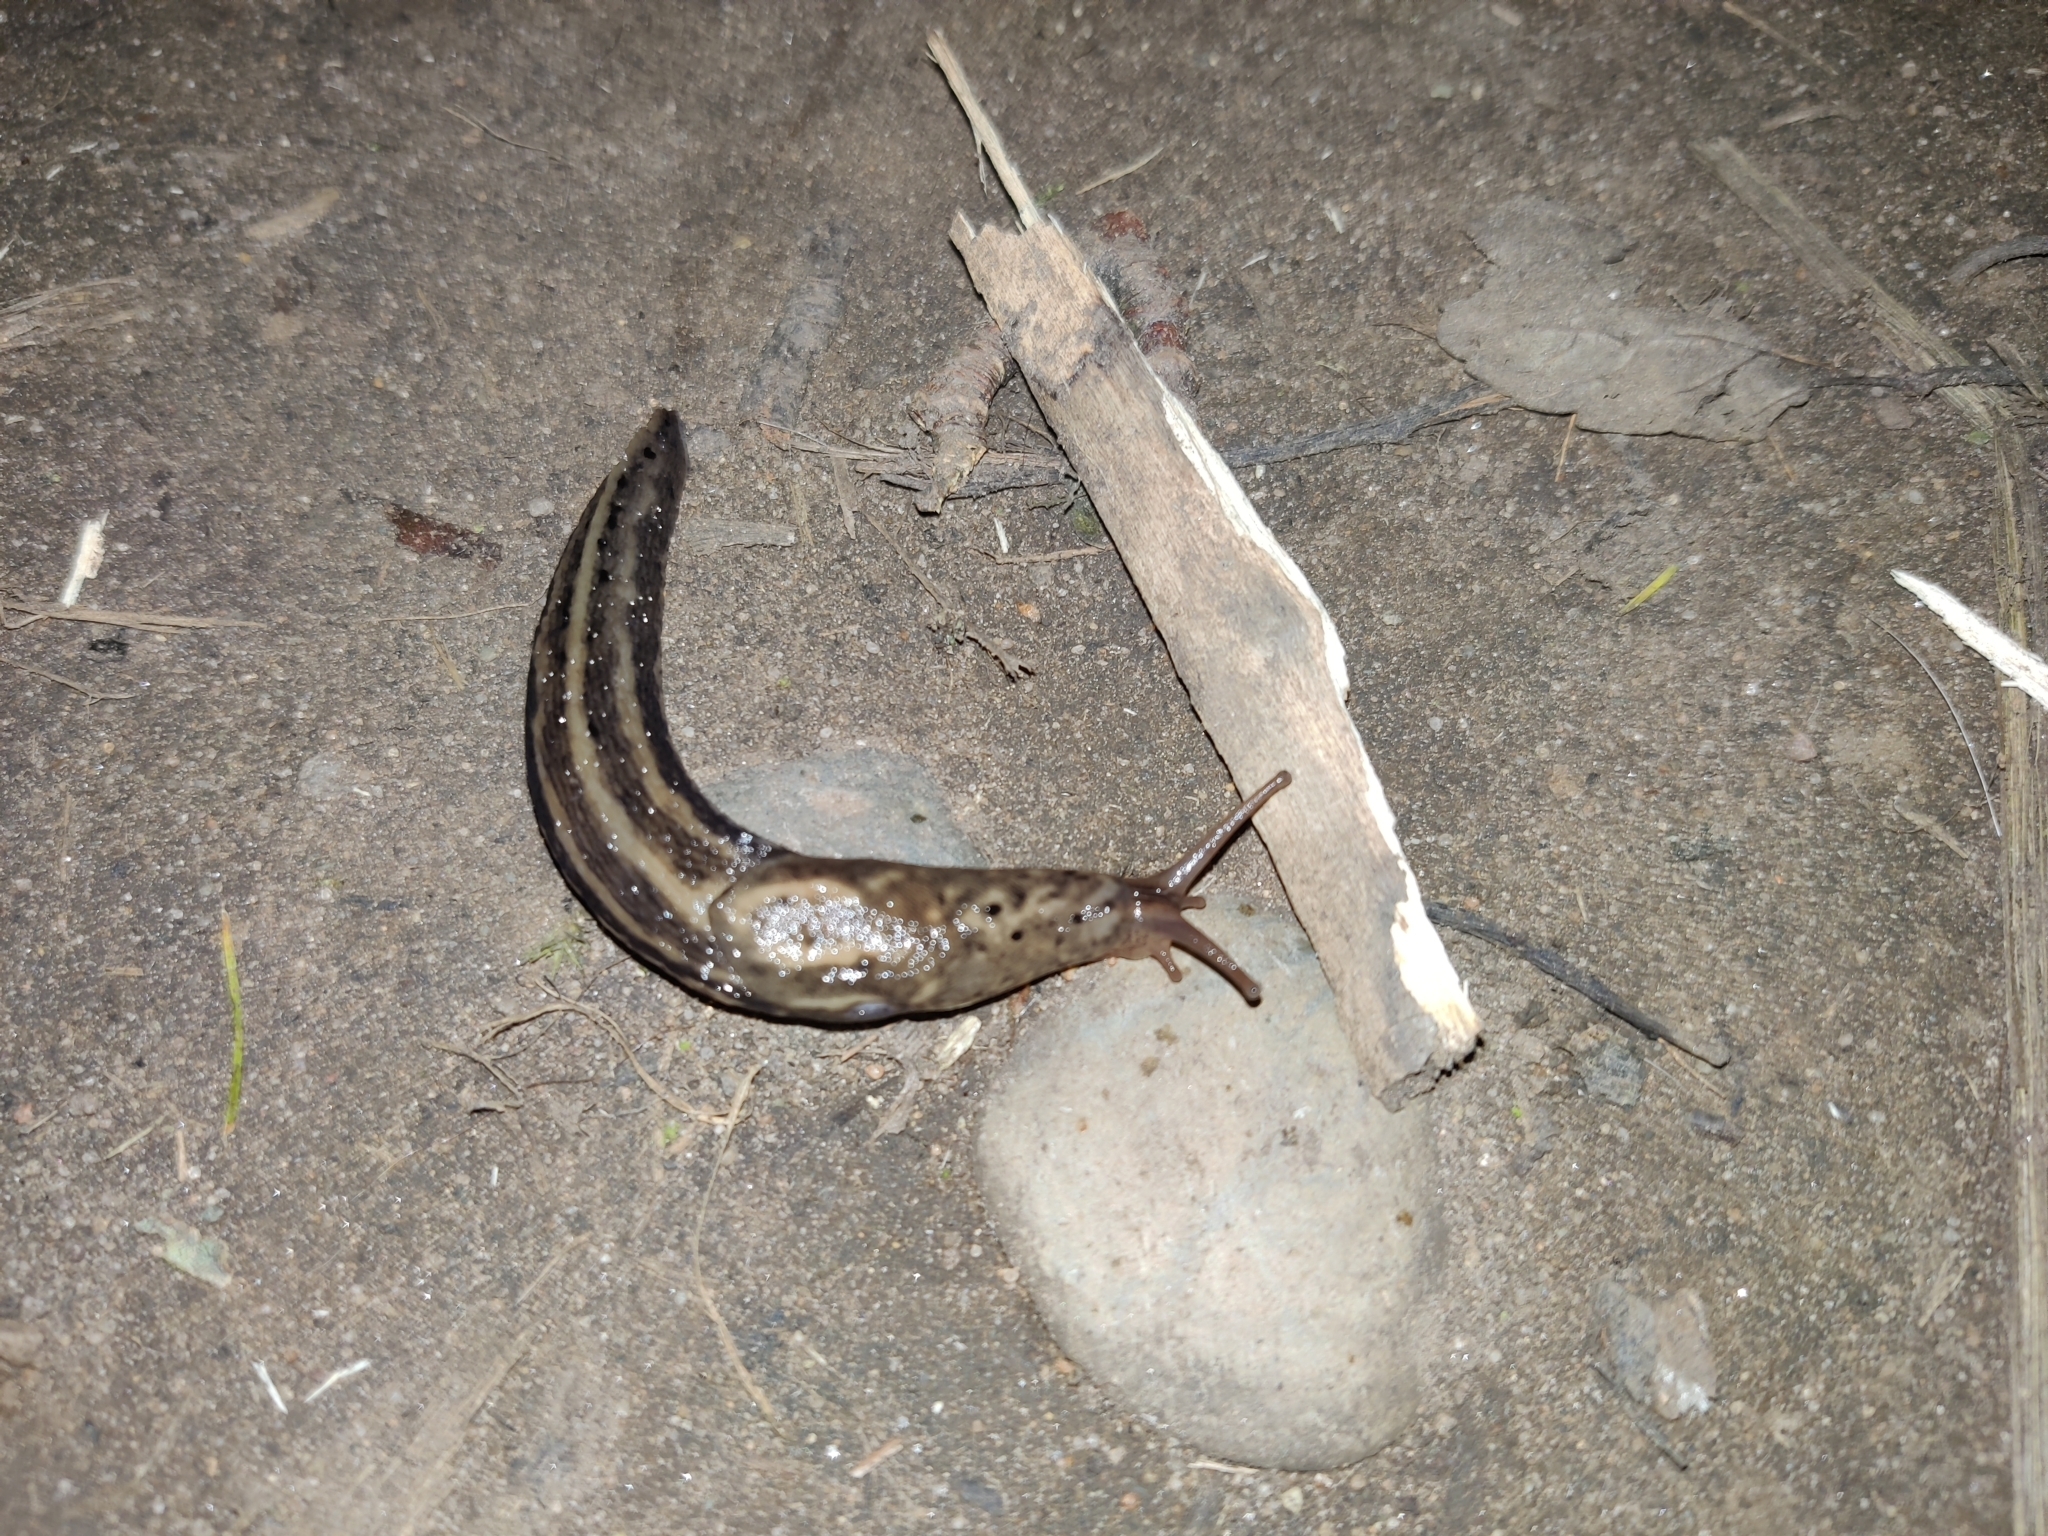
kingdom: Animalia
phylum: Mollusca
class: Gastropoda
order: Stylommatophora
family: Limacidae
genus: Limax
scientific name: Limax maximus
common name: Great grey slug
